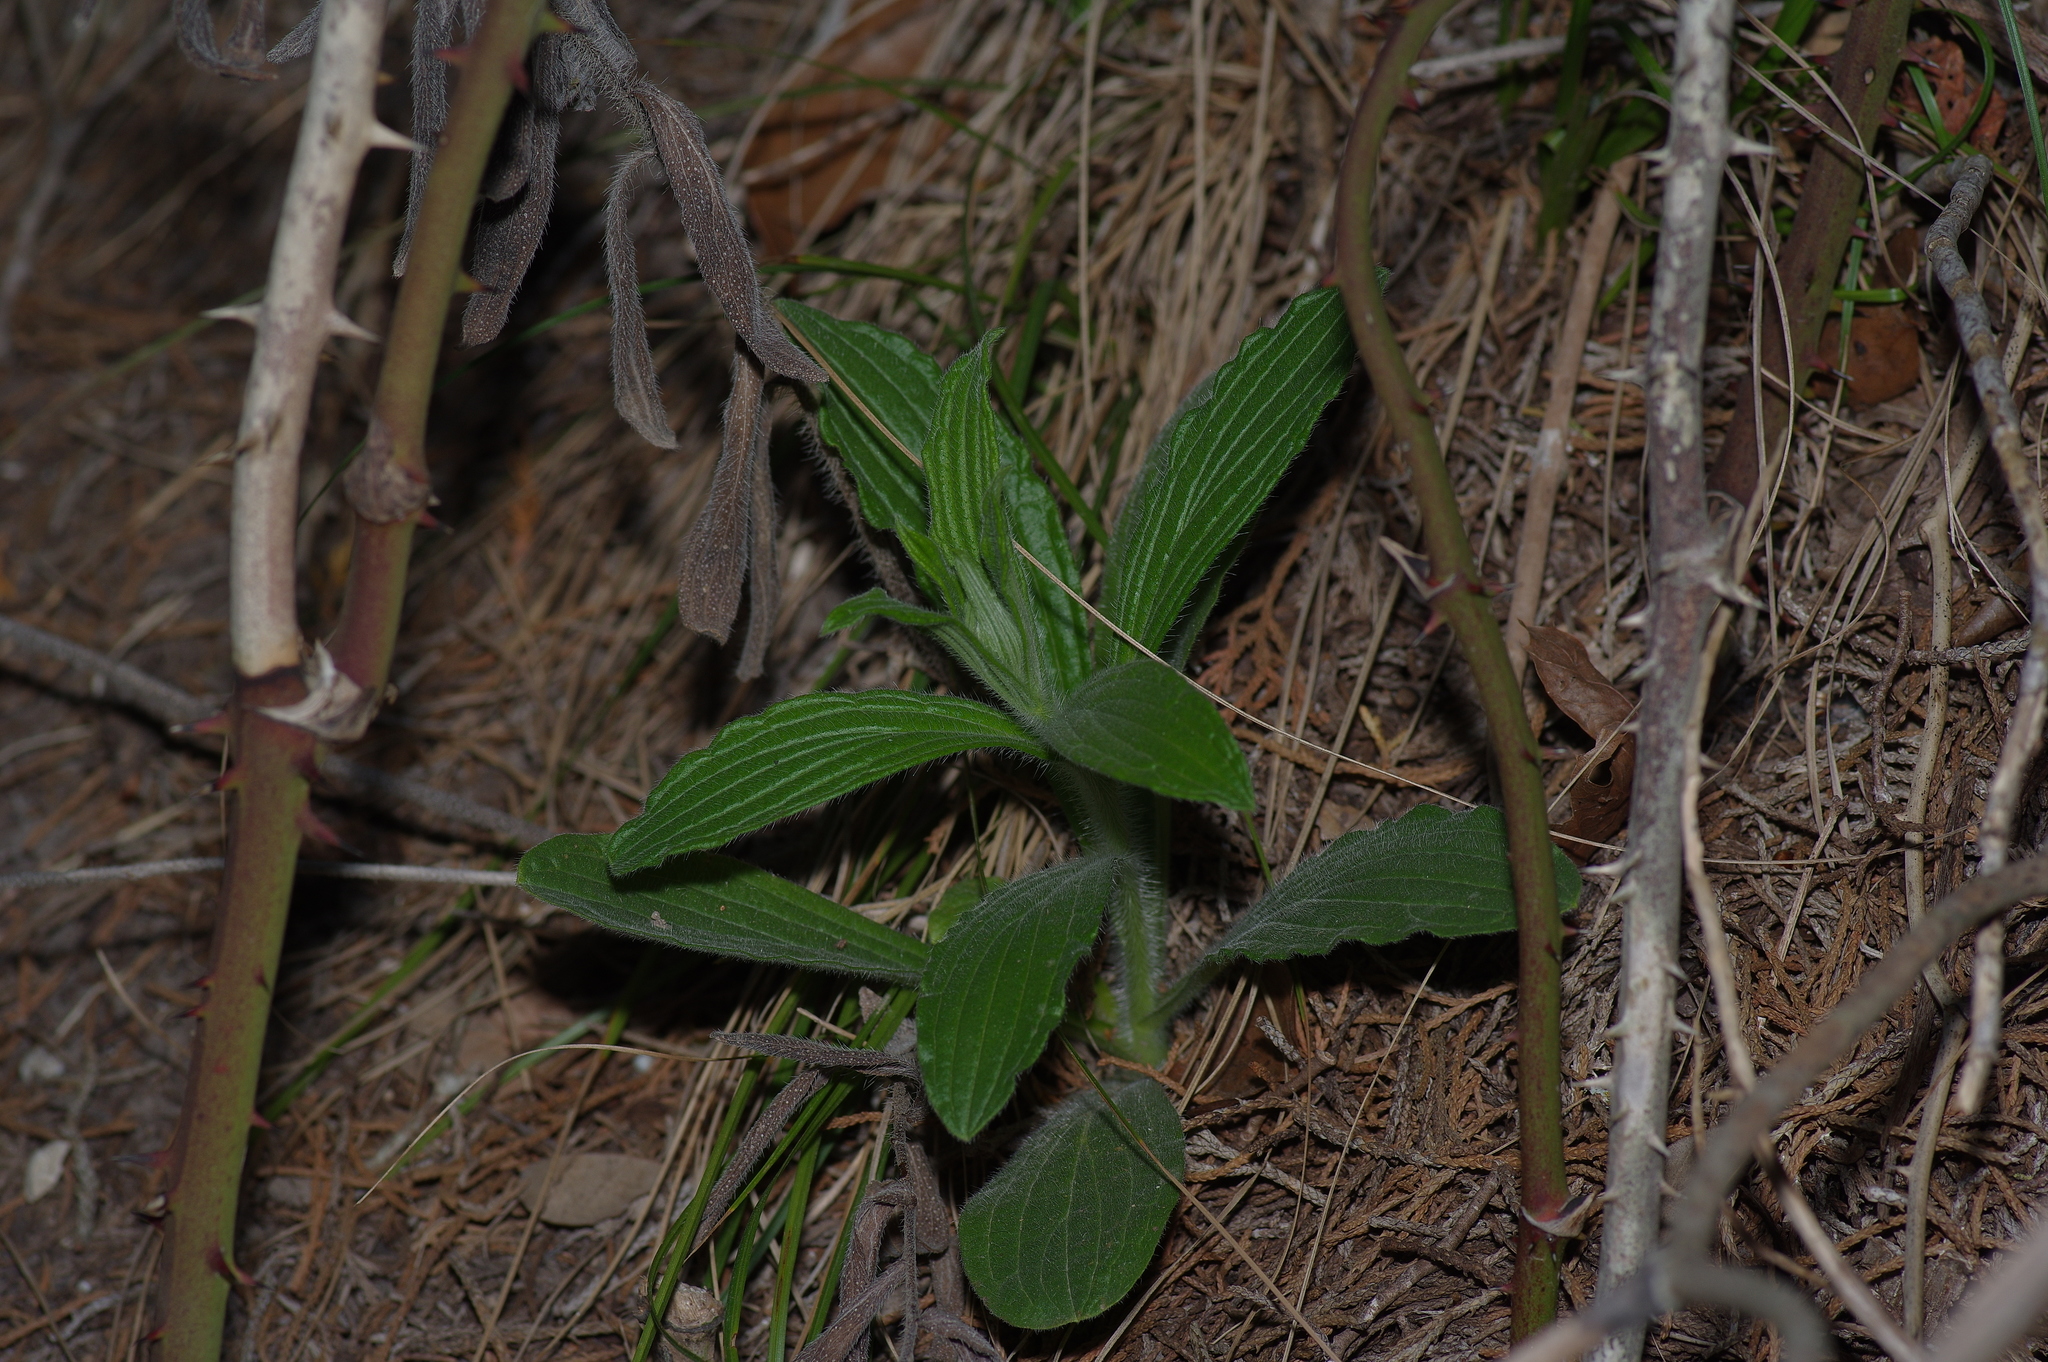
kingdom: Plantae
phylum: Tracheophyta
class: Magnoliopsida
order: Boraginales
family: Boraginaceae
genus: Lithospermum
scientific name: Lithospermum caroliniense
